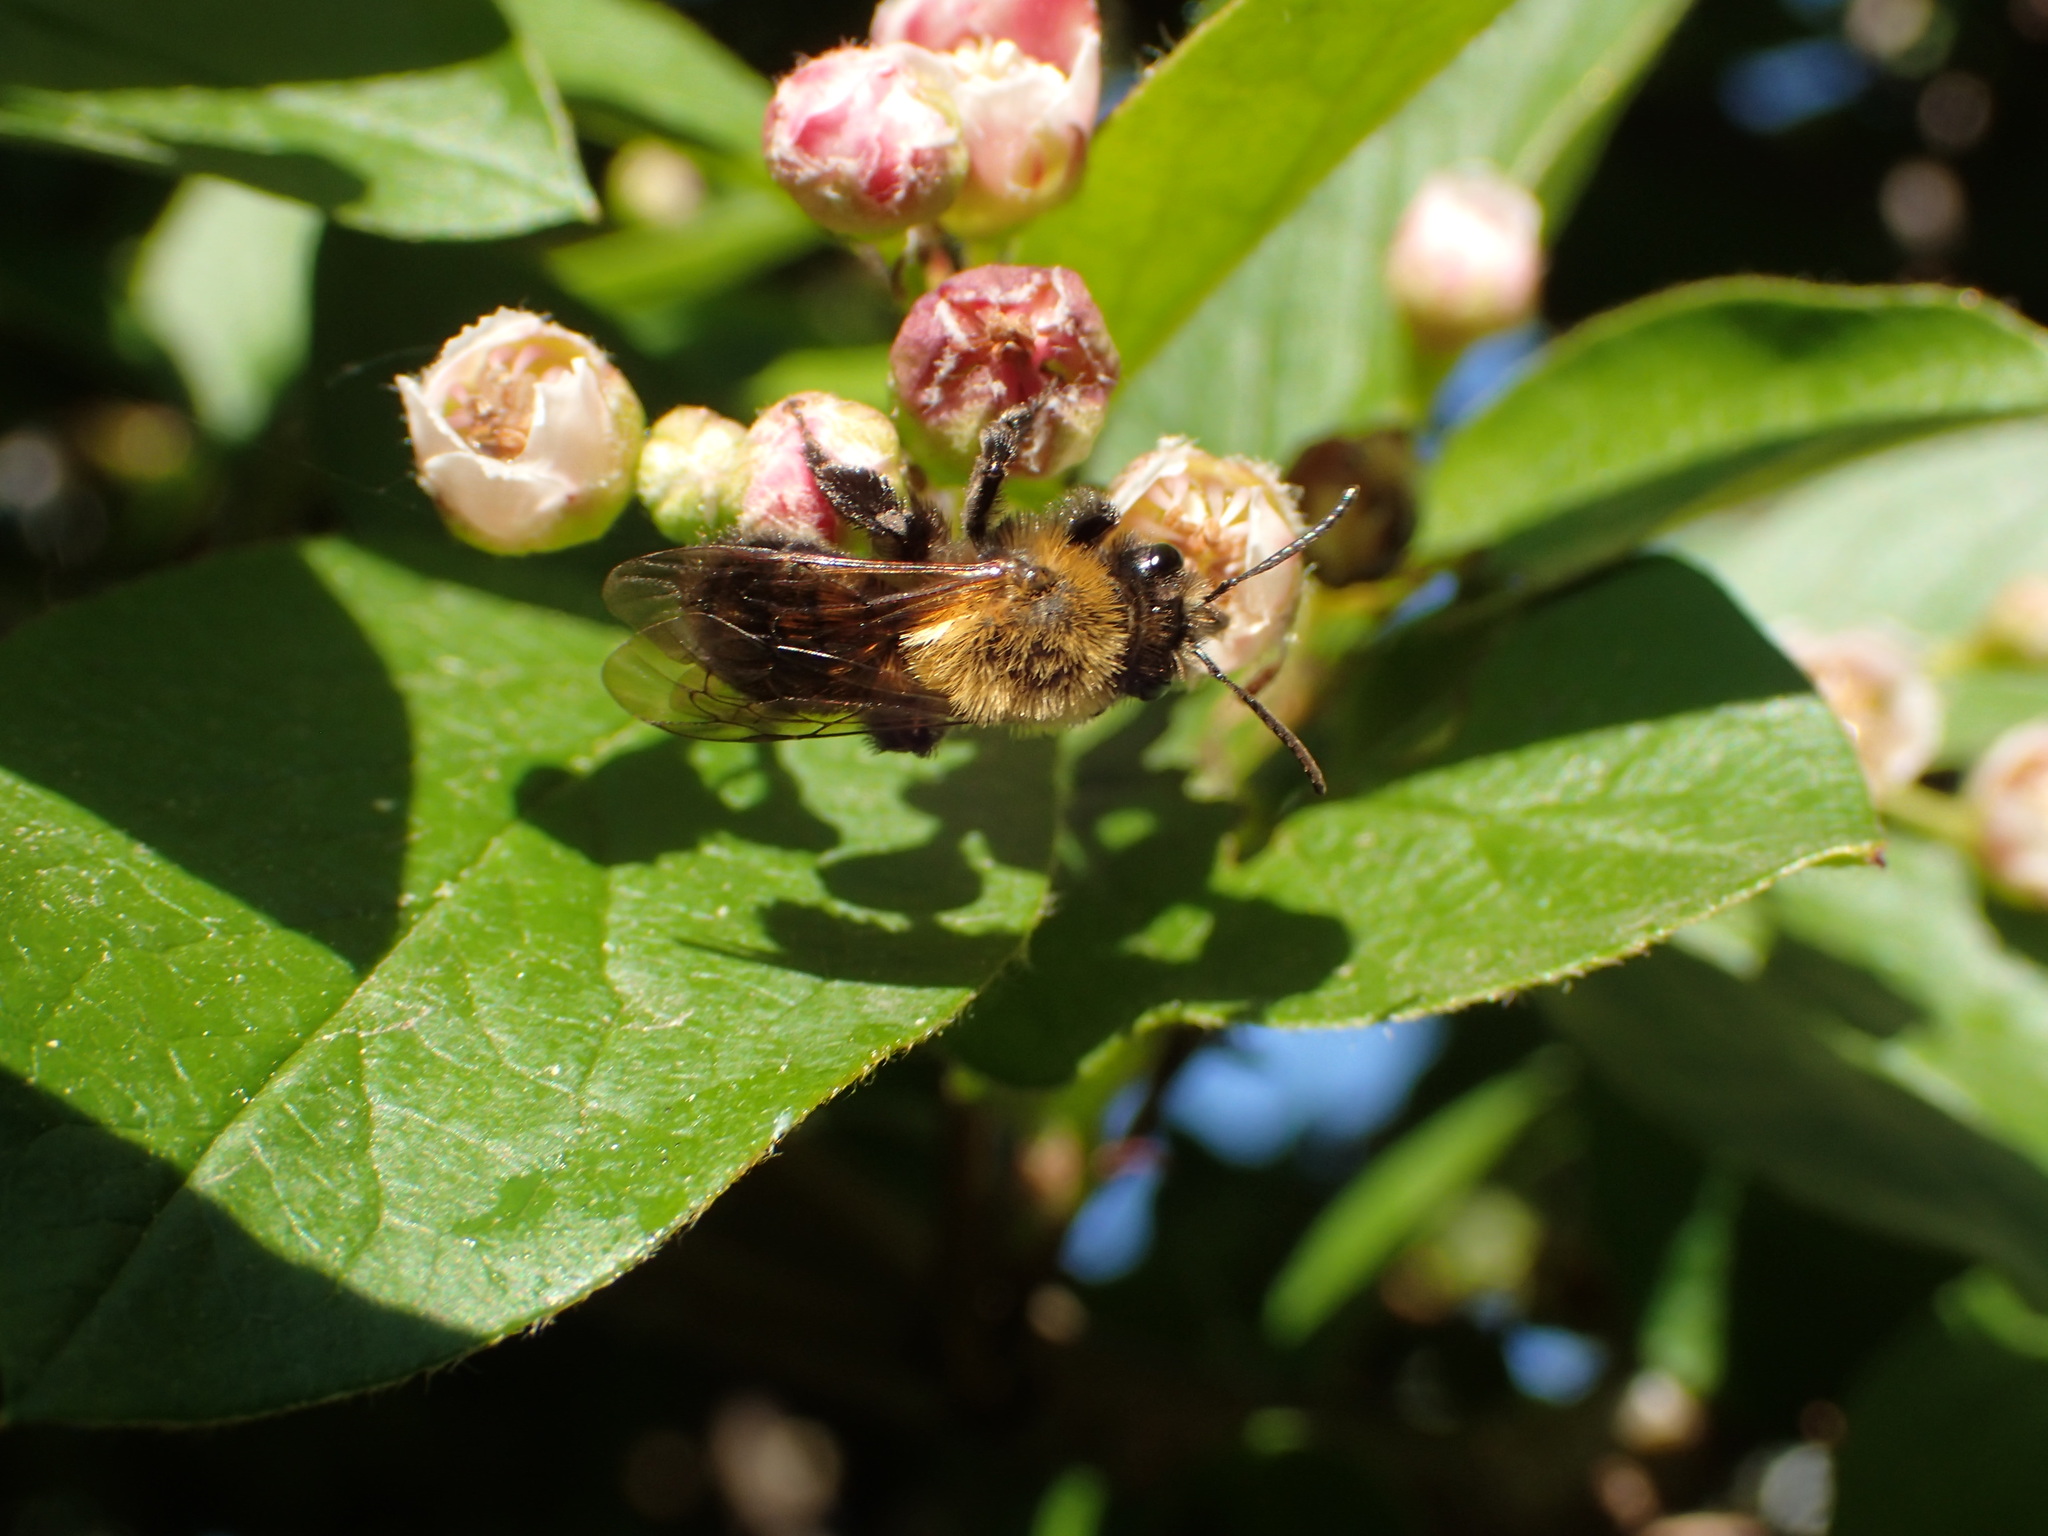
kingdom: Animalia
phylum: Arthropoda
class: Insecta
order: Hymenoptera
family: Andrenidae
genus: Andrena
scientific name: Andrena milwaukeensis
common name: Milwaukee mining bee
